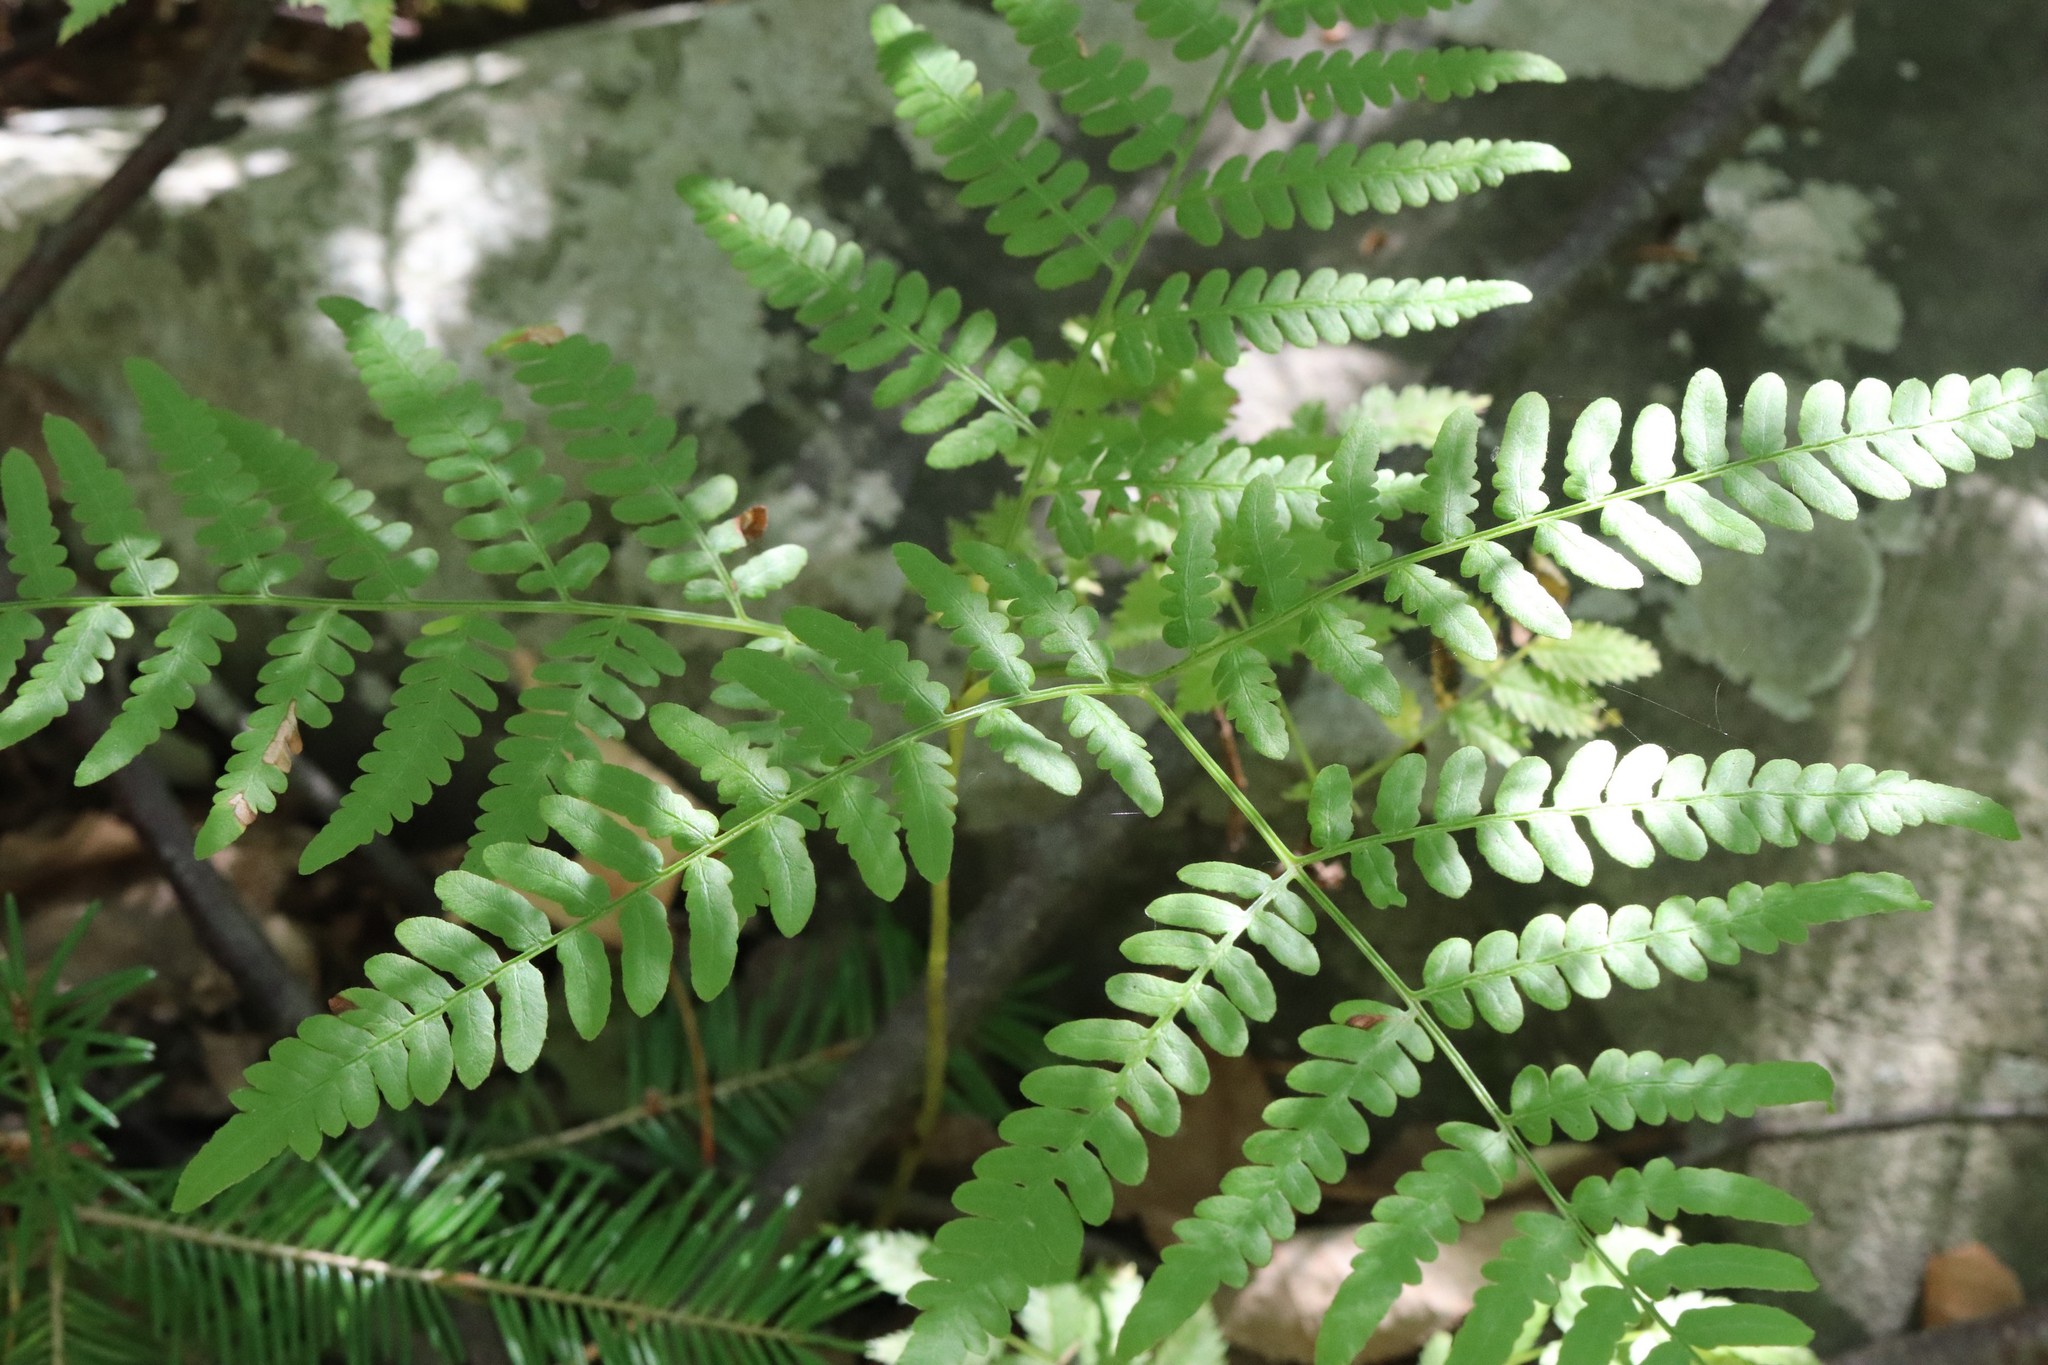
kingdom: Plantae
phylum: Tracheophyta
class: Polypodiopsida
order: Polypodiales
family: Dennstaedtiaceae
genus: Pteridium
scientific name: Pteridium aquilinum
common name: Bracken
